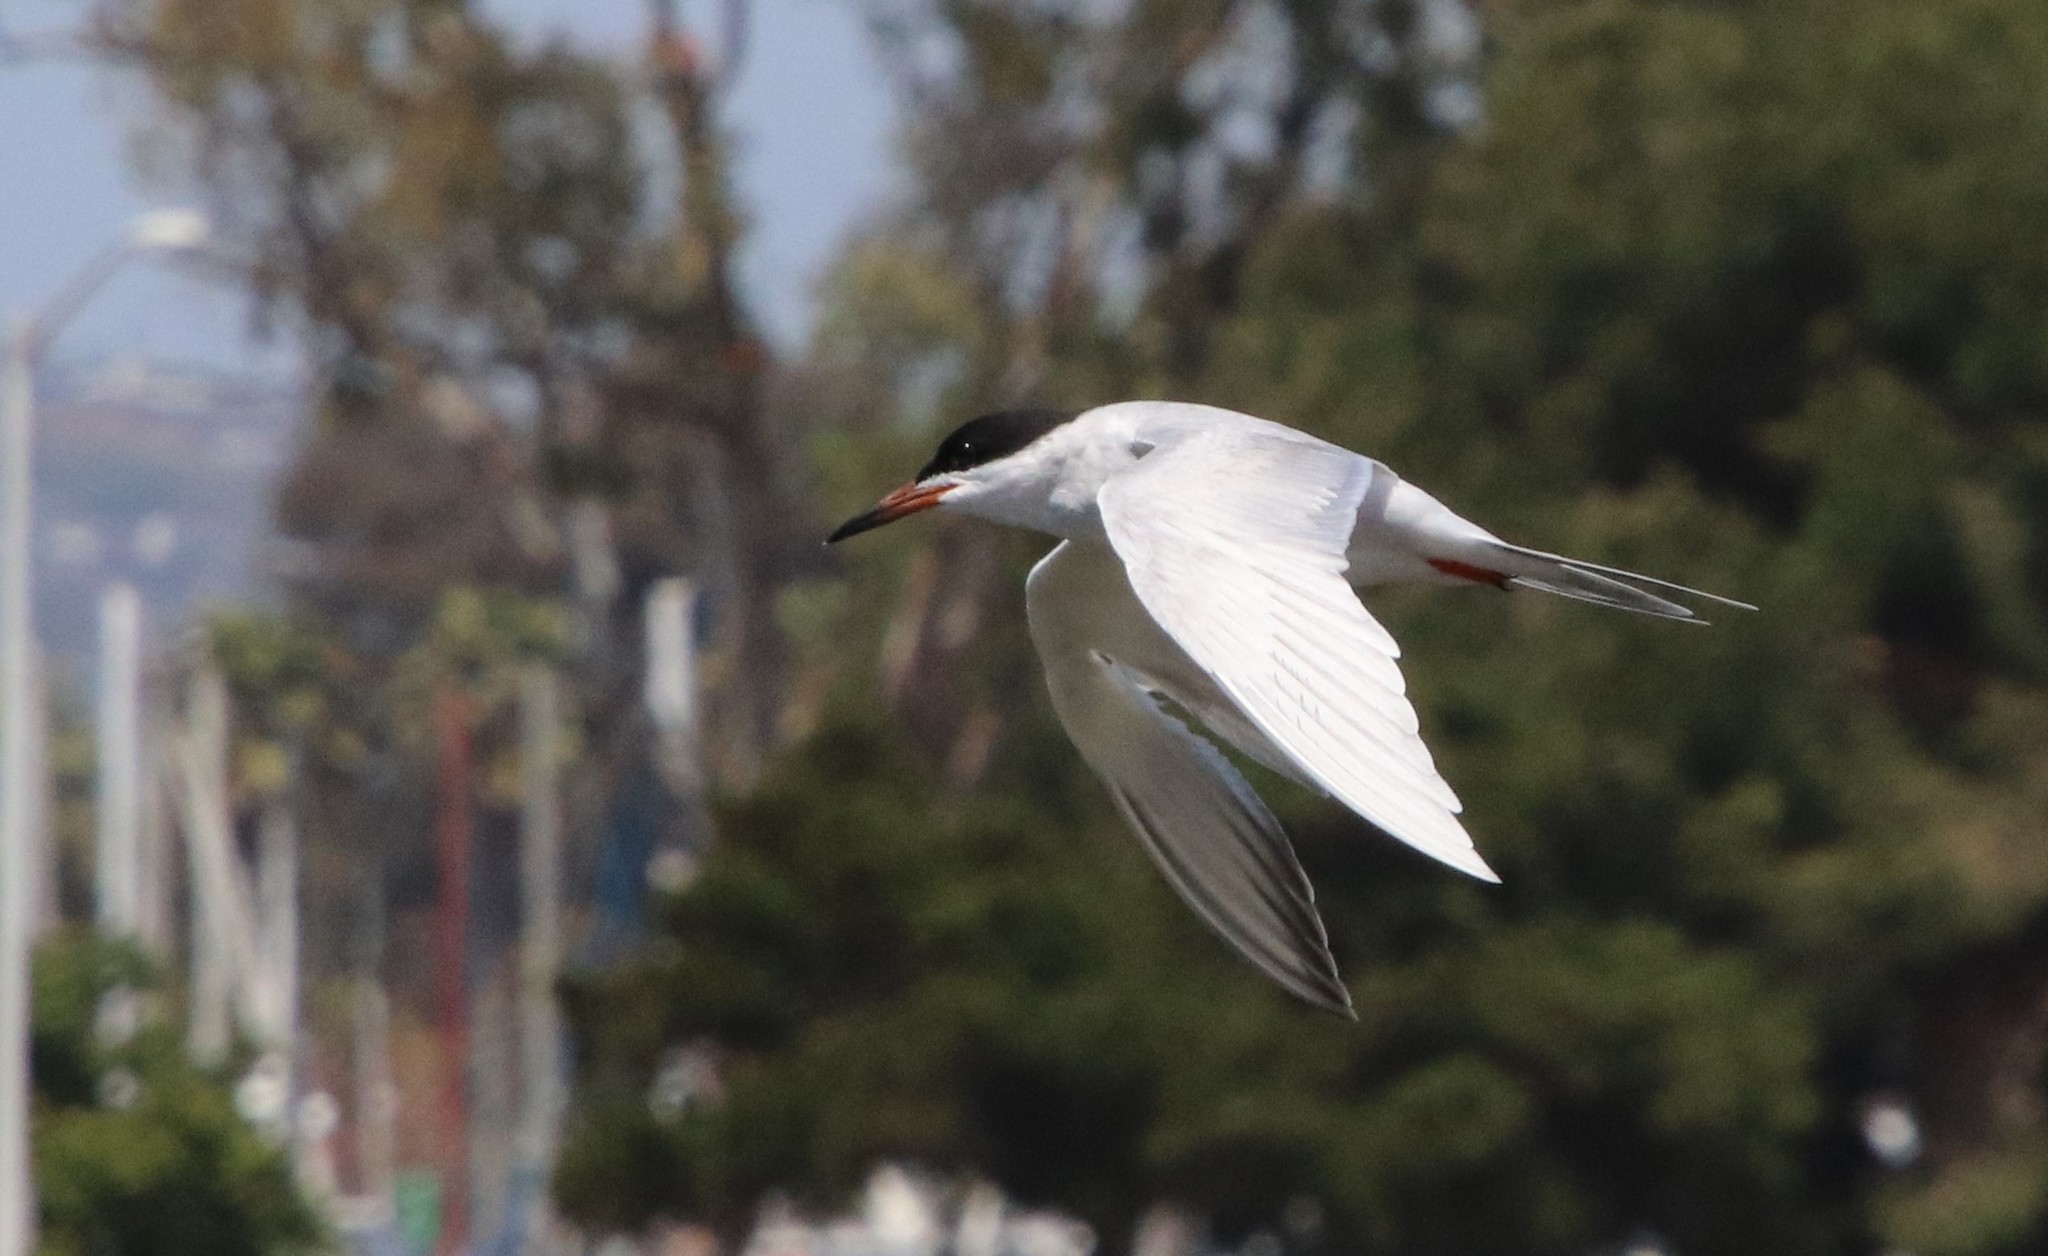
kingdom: Animalia
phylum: Chordata
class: Aves
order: Charadriiformes
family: Laridae
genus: Sterna
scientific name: Sterna forsteri
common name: Forster's tern
